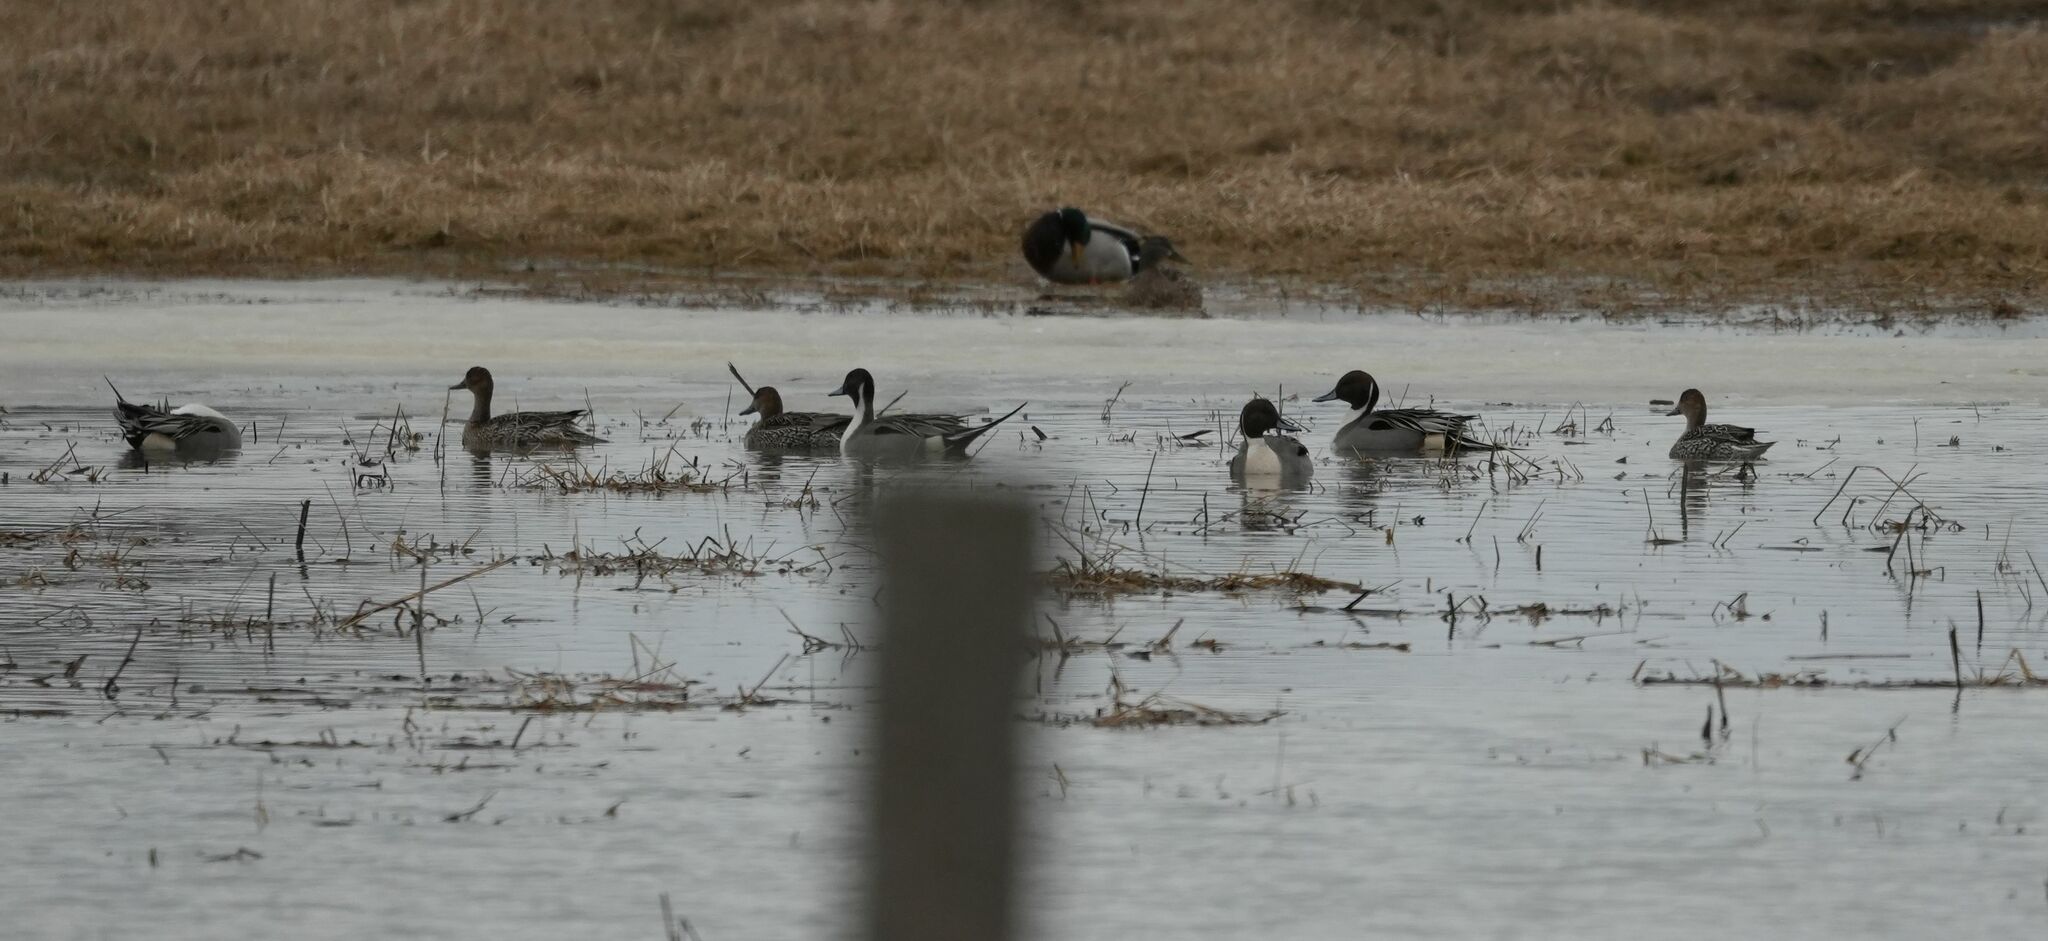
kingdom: Animalia
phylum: Chordata
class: Aves
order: Anseriformes
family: Anatidae
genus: Anas
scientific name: Anas acuta
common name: Northern pintail
